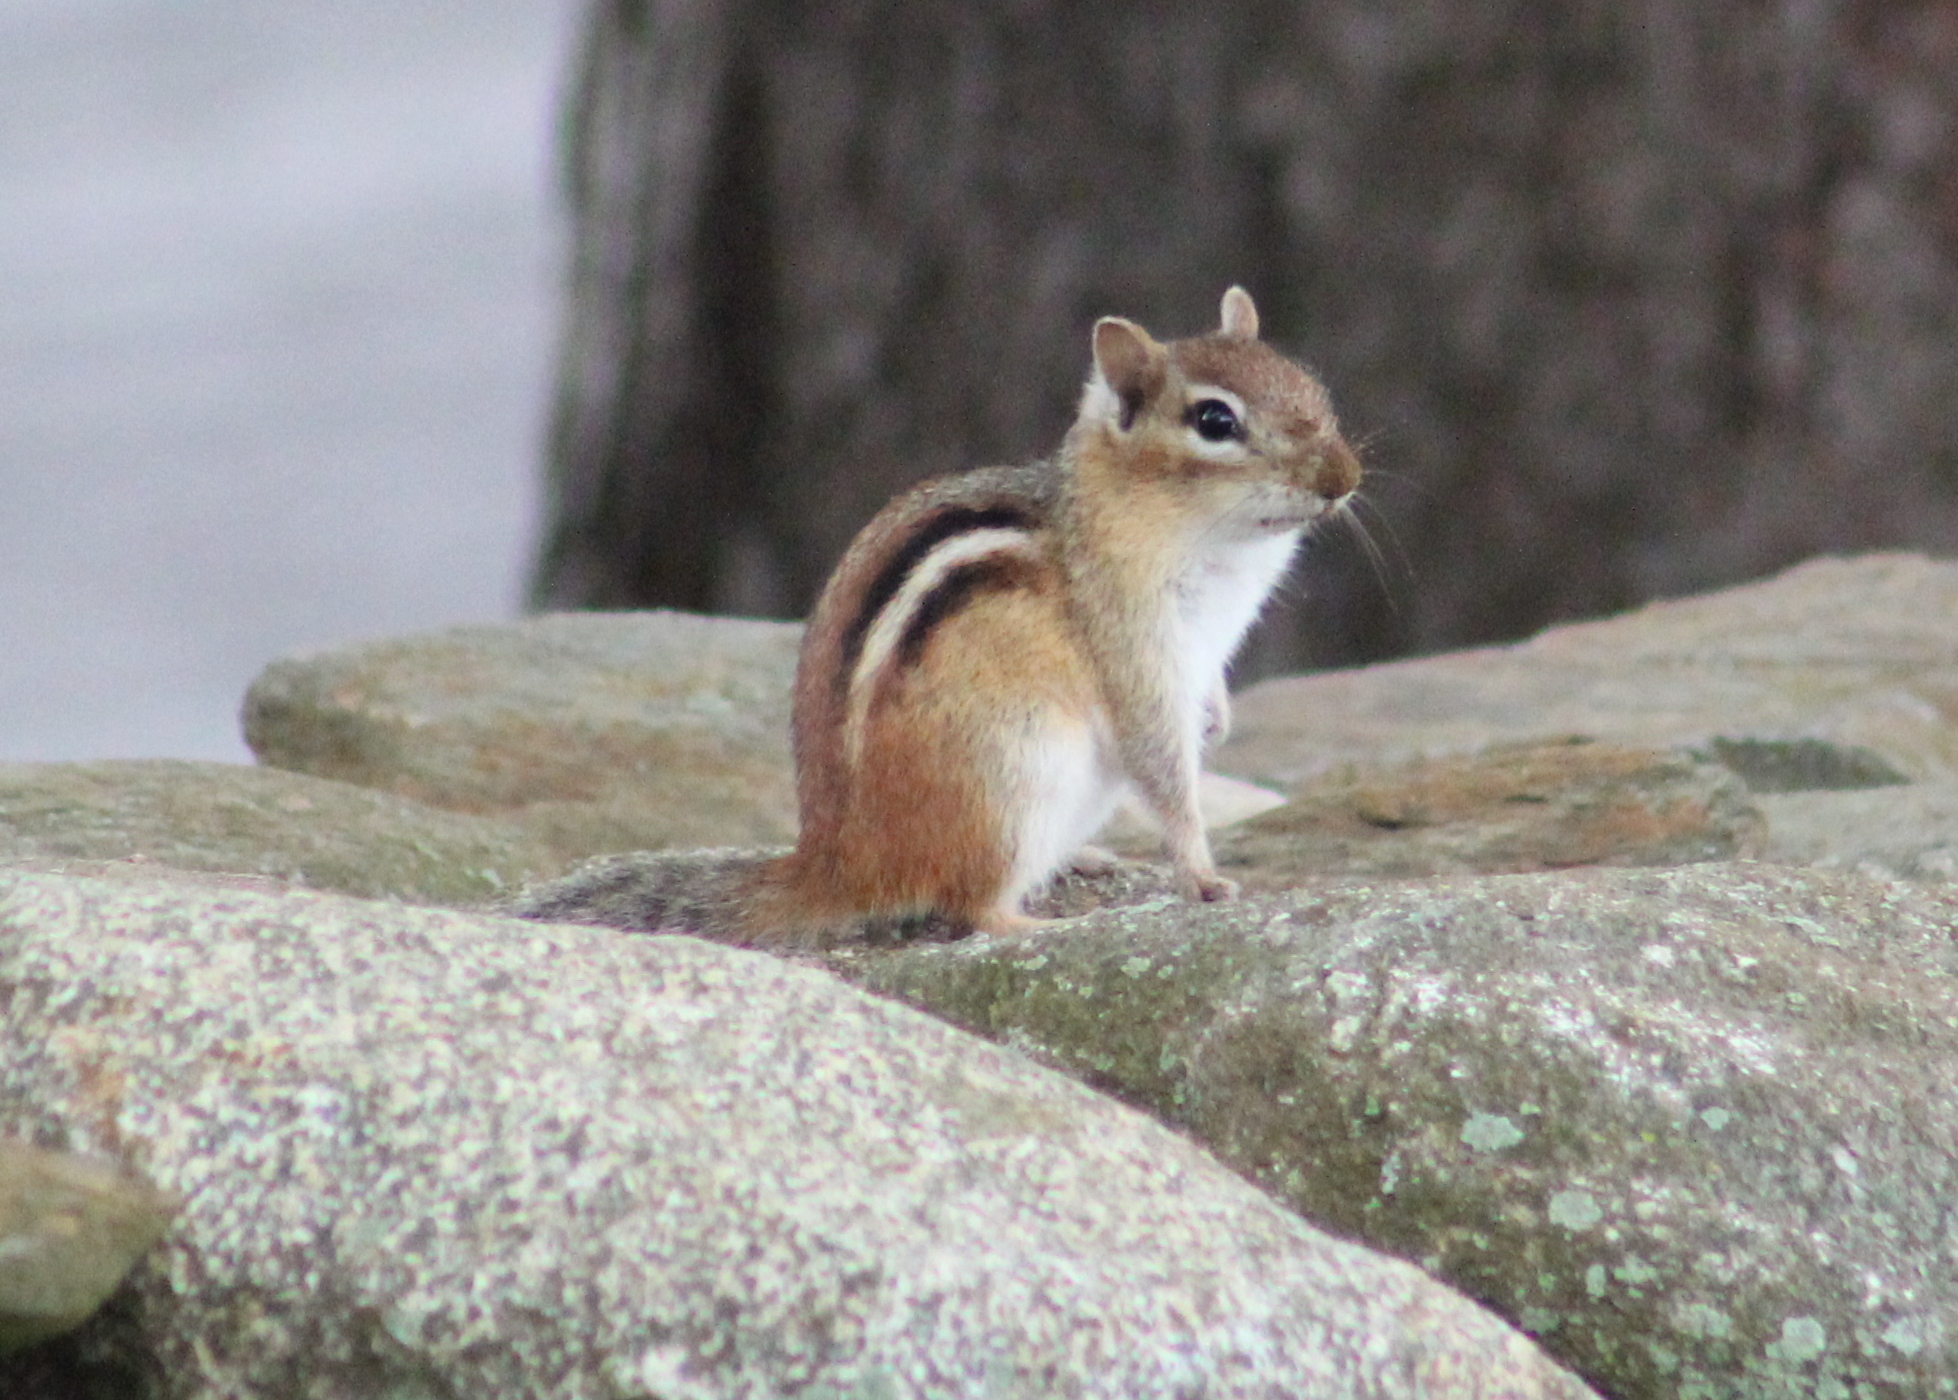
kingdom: Animalia
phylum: Chordata
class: Mammalia
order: Rodentia
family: Sciuridae
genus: Tamias
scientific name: Tamias striatus
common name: Eastern chipmunk
